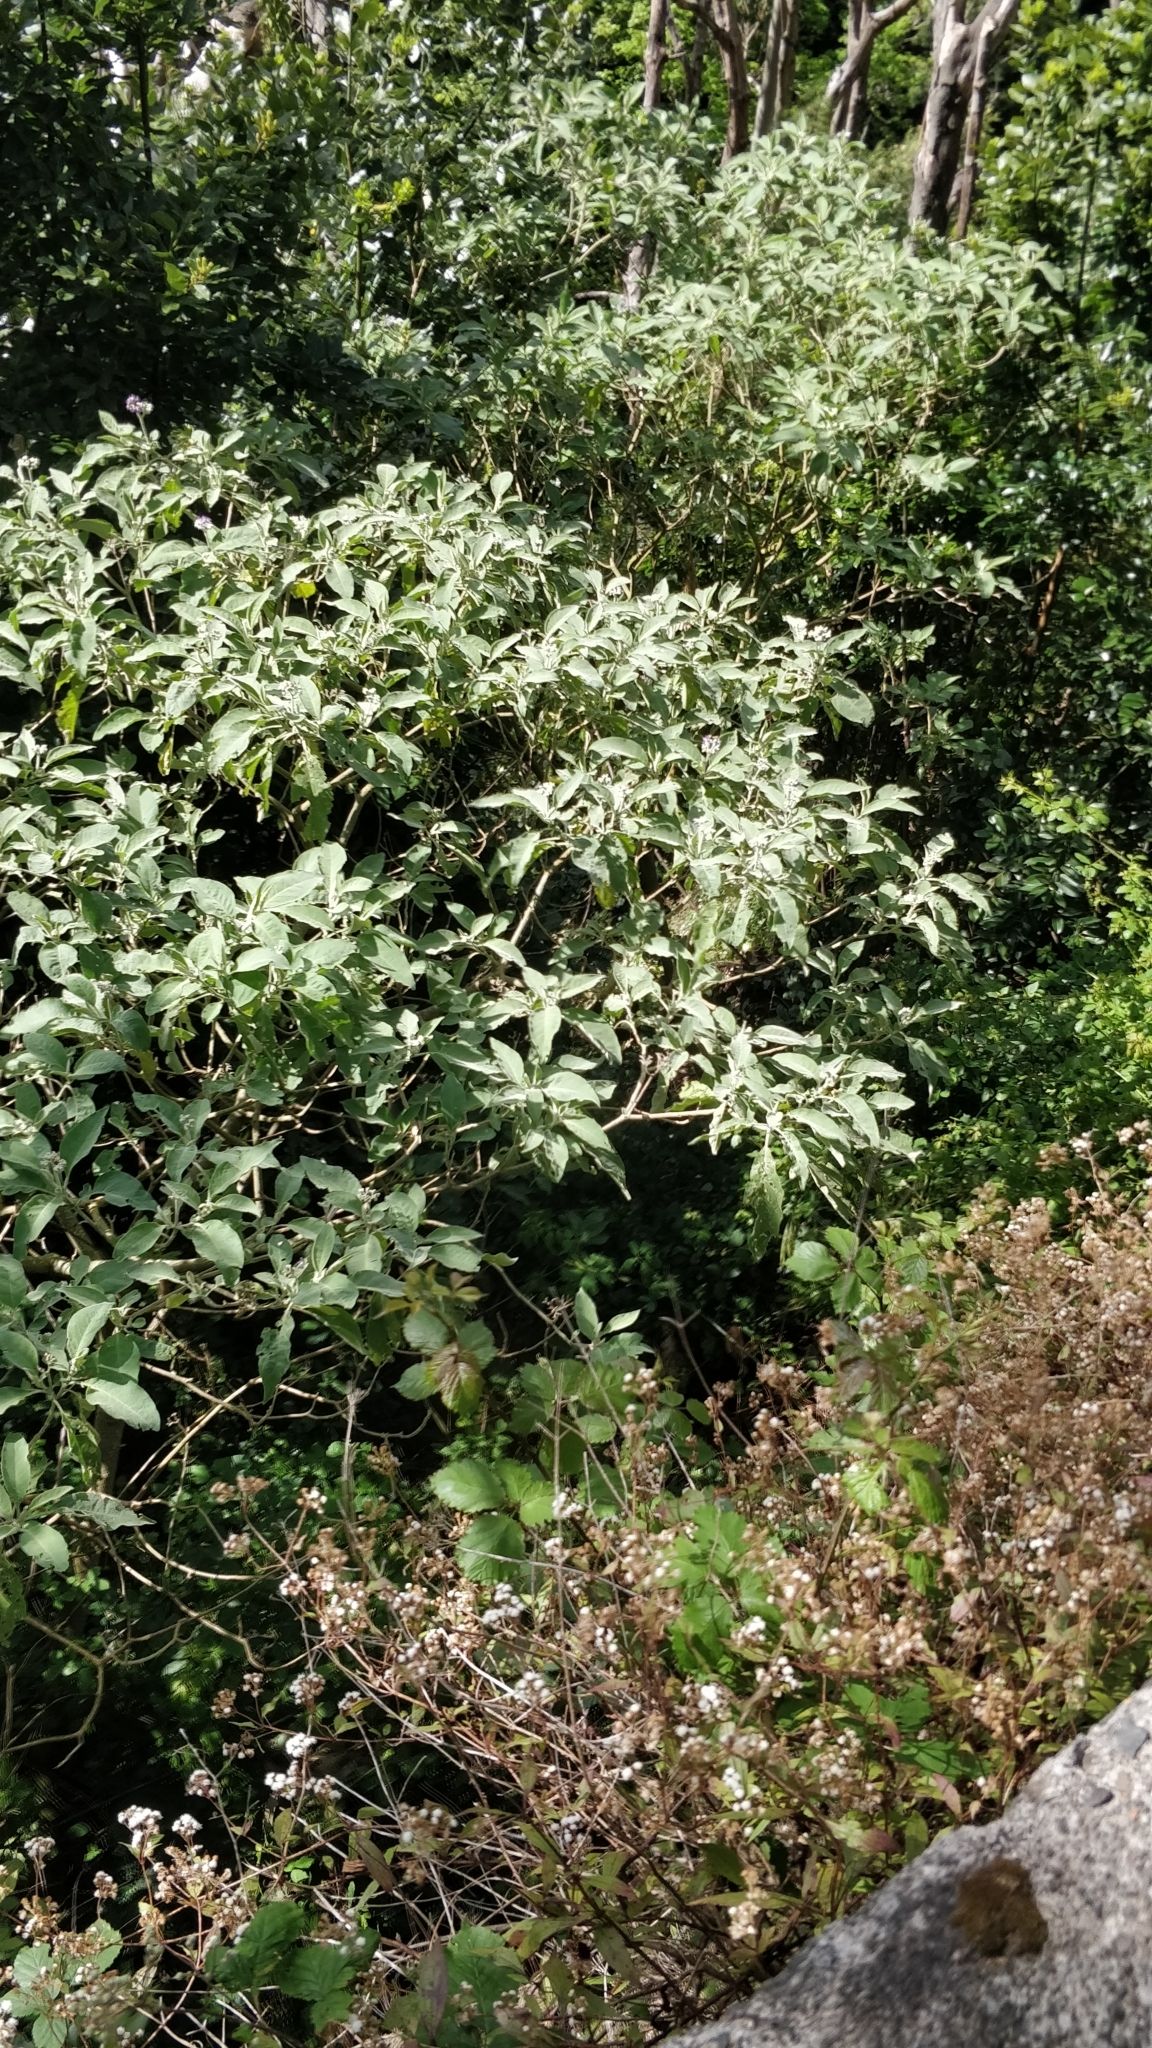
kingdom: Plantae
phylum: Tracheophyta
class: Magnoliopsida
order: Solanales
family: Solanaceae
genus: Solanum
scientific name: Solanum mauritianum
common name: Earleaf nightshade
